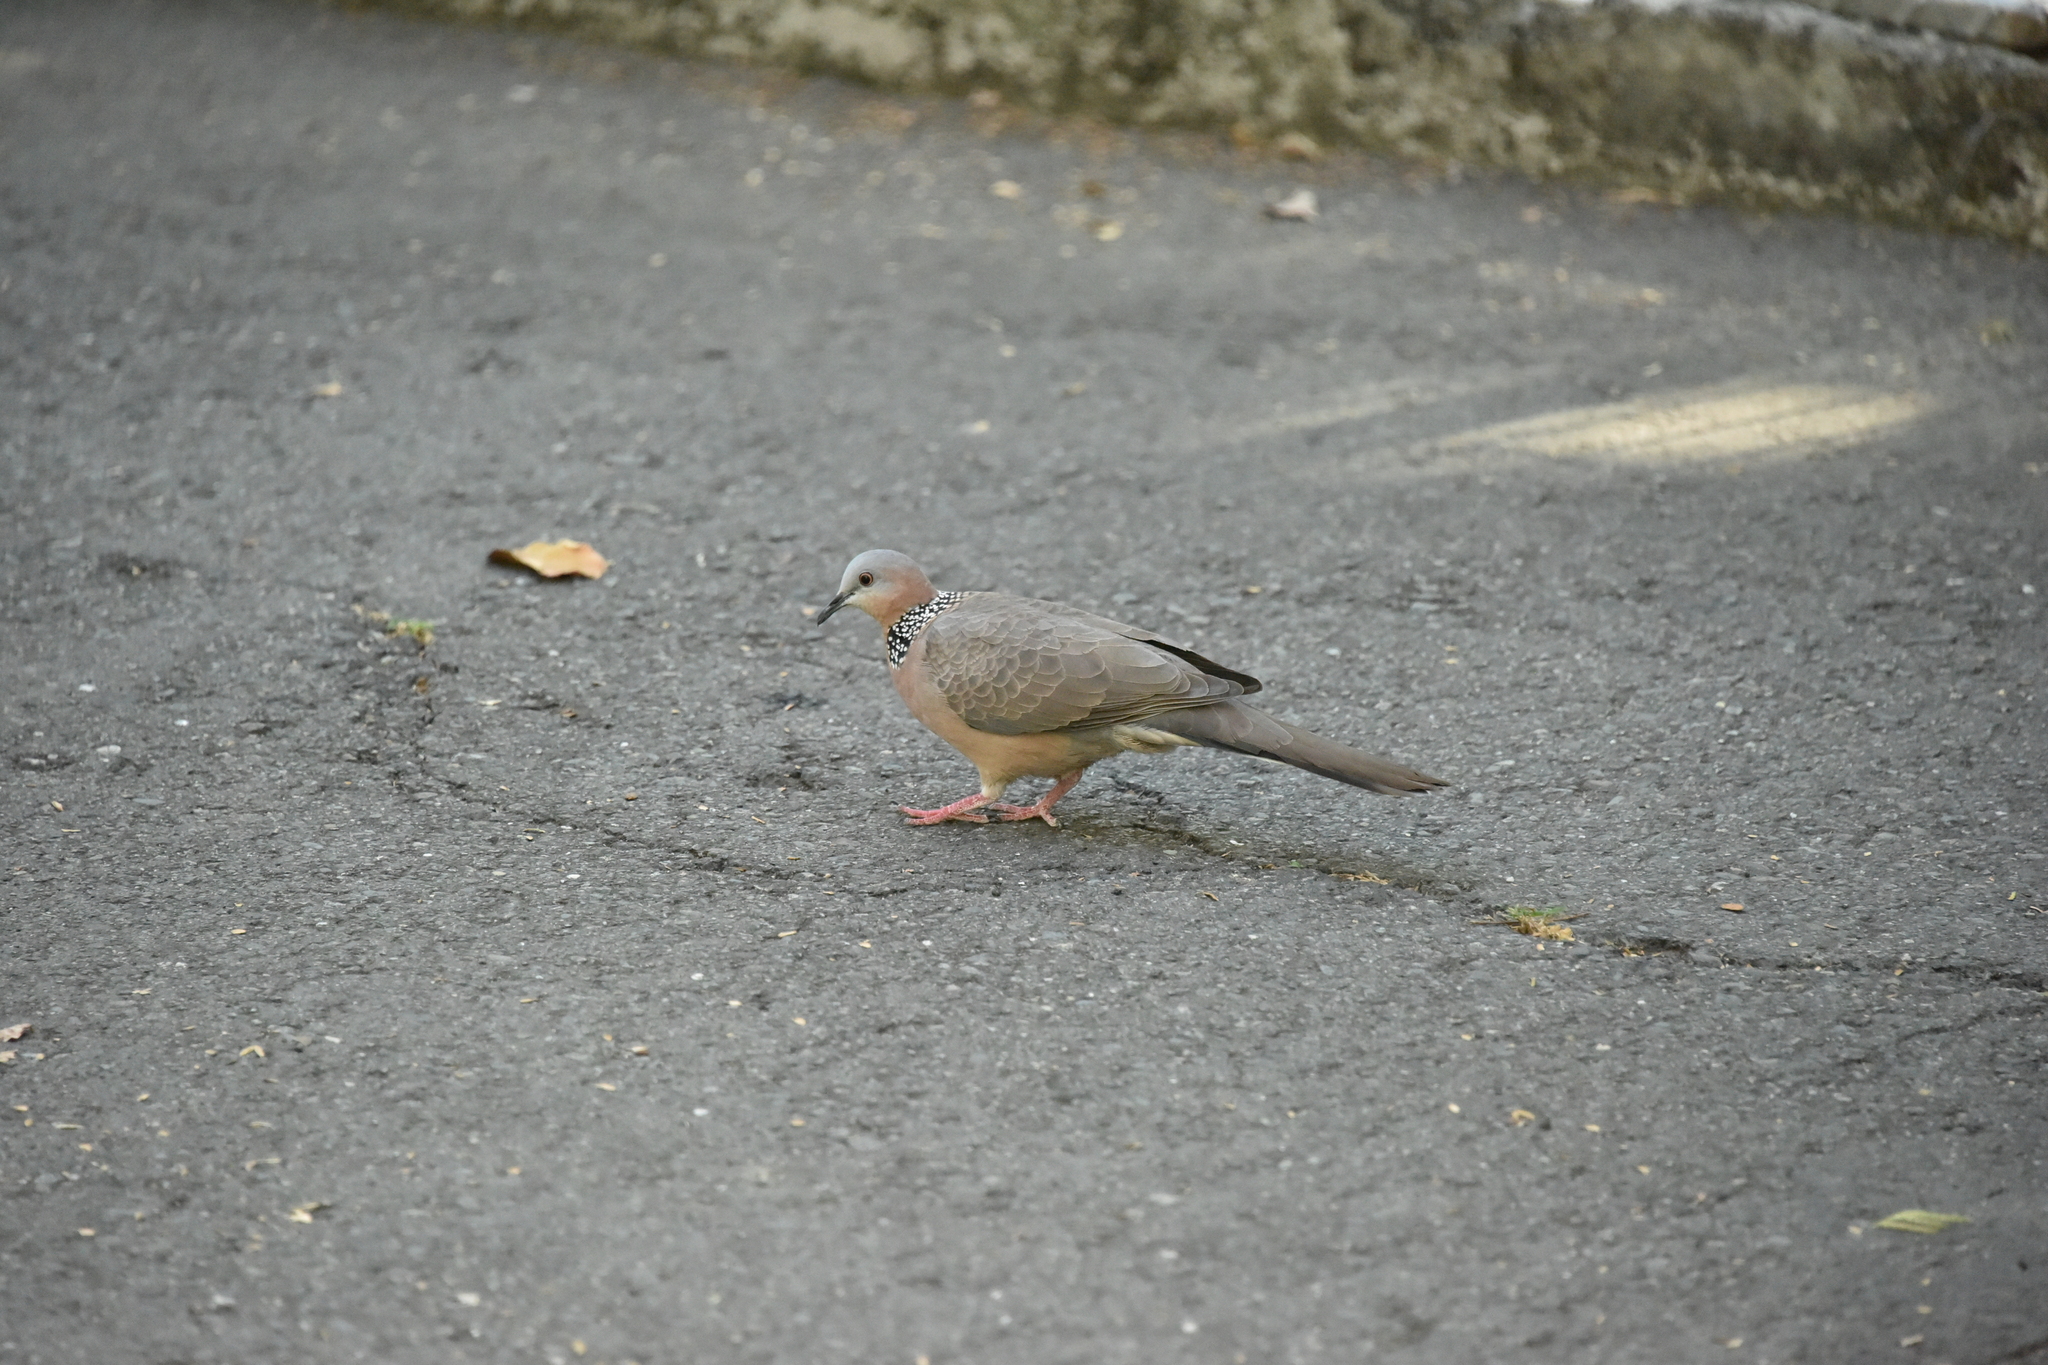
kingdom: Animalia
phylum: Chordata
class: Aves
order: Columbiformes
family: Columbidae
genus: Spilopelia
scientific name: Spilopelia chinensis
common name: Spotted dove
